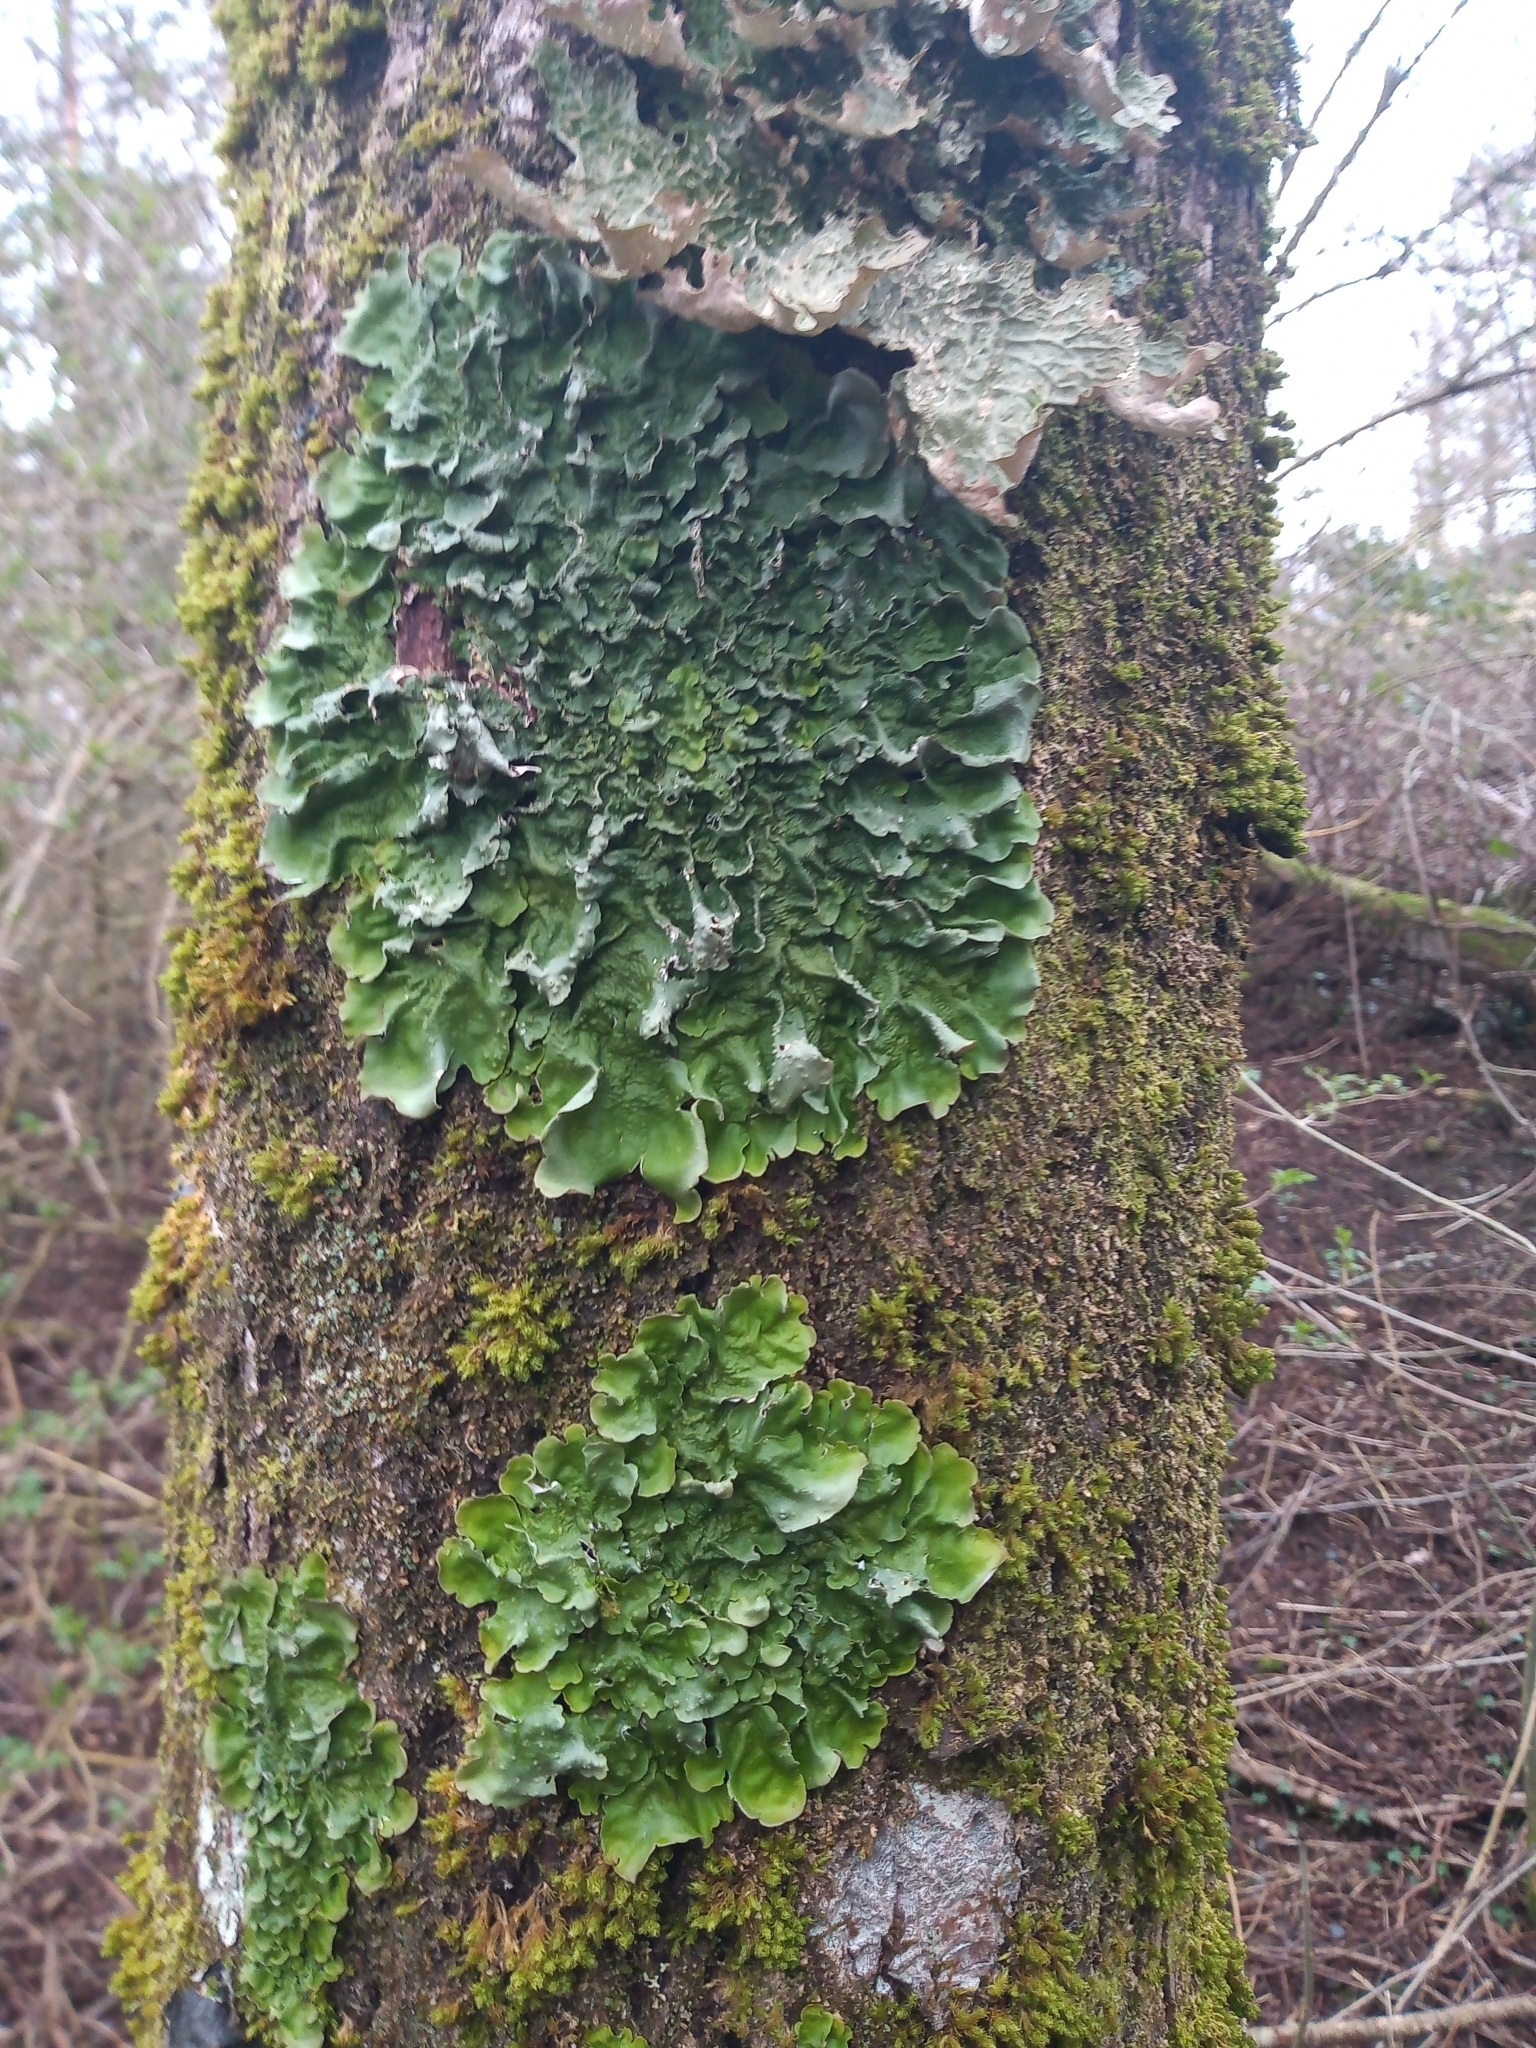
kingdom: Fungi
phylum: Ascomycota
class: Lecanoromycetes
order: Peltigerales
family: Lobariaceae
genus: Ricasolia
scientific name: Ricasolia virens
